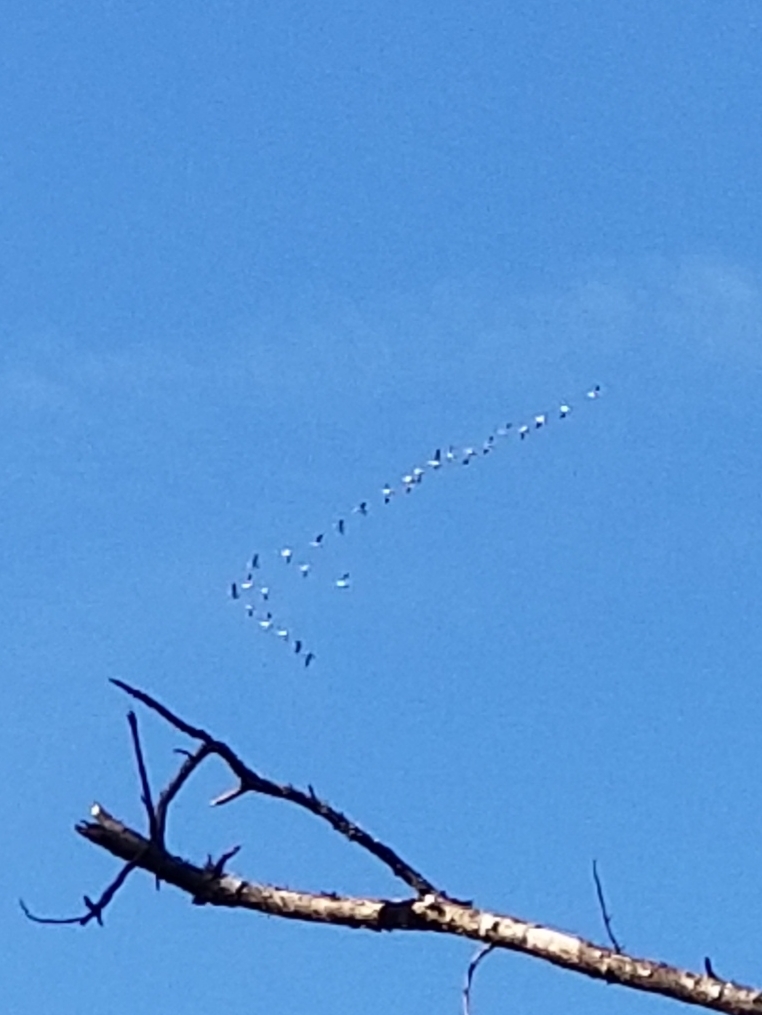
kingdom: Animalia
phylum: Chordata
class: Aves
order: Anseriformes
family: Anatidae
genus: Anser
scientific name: Anser caerulescens
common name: Snow goose
